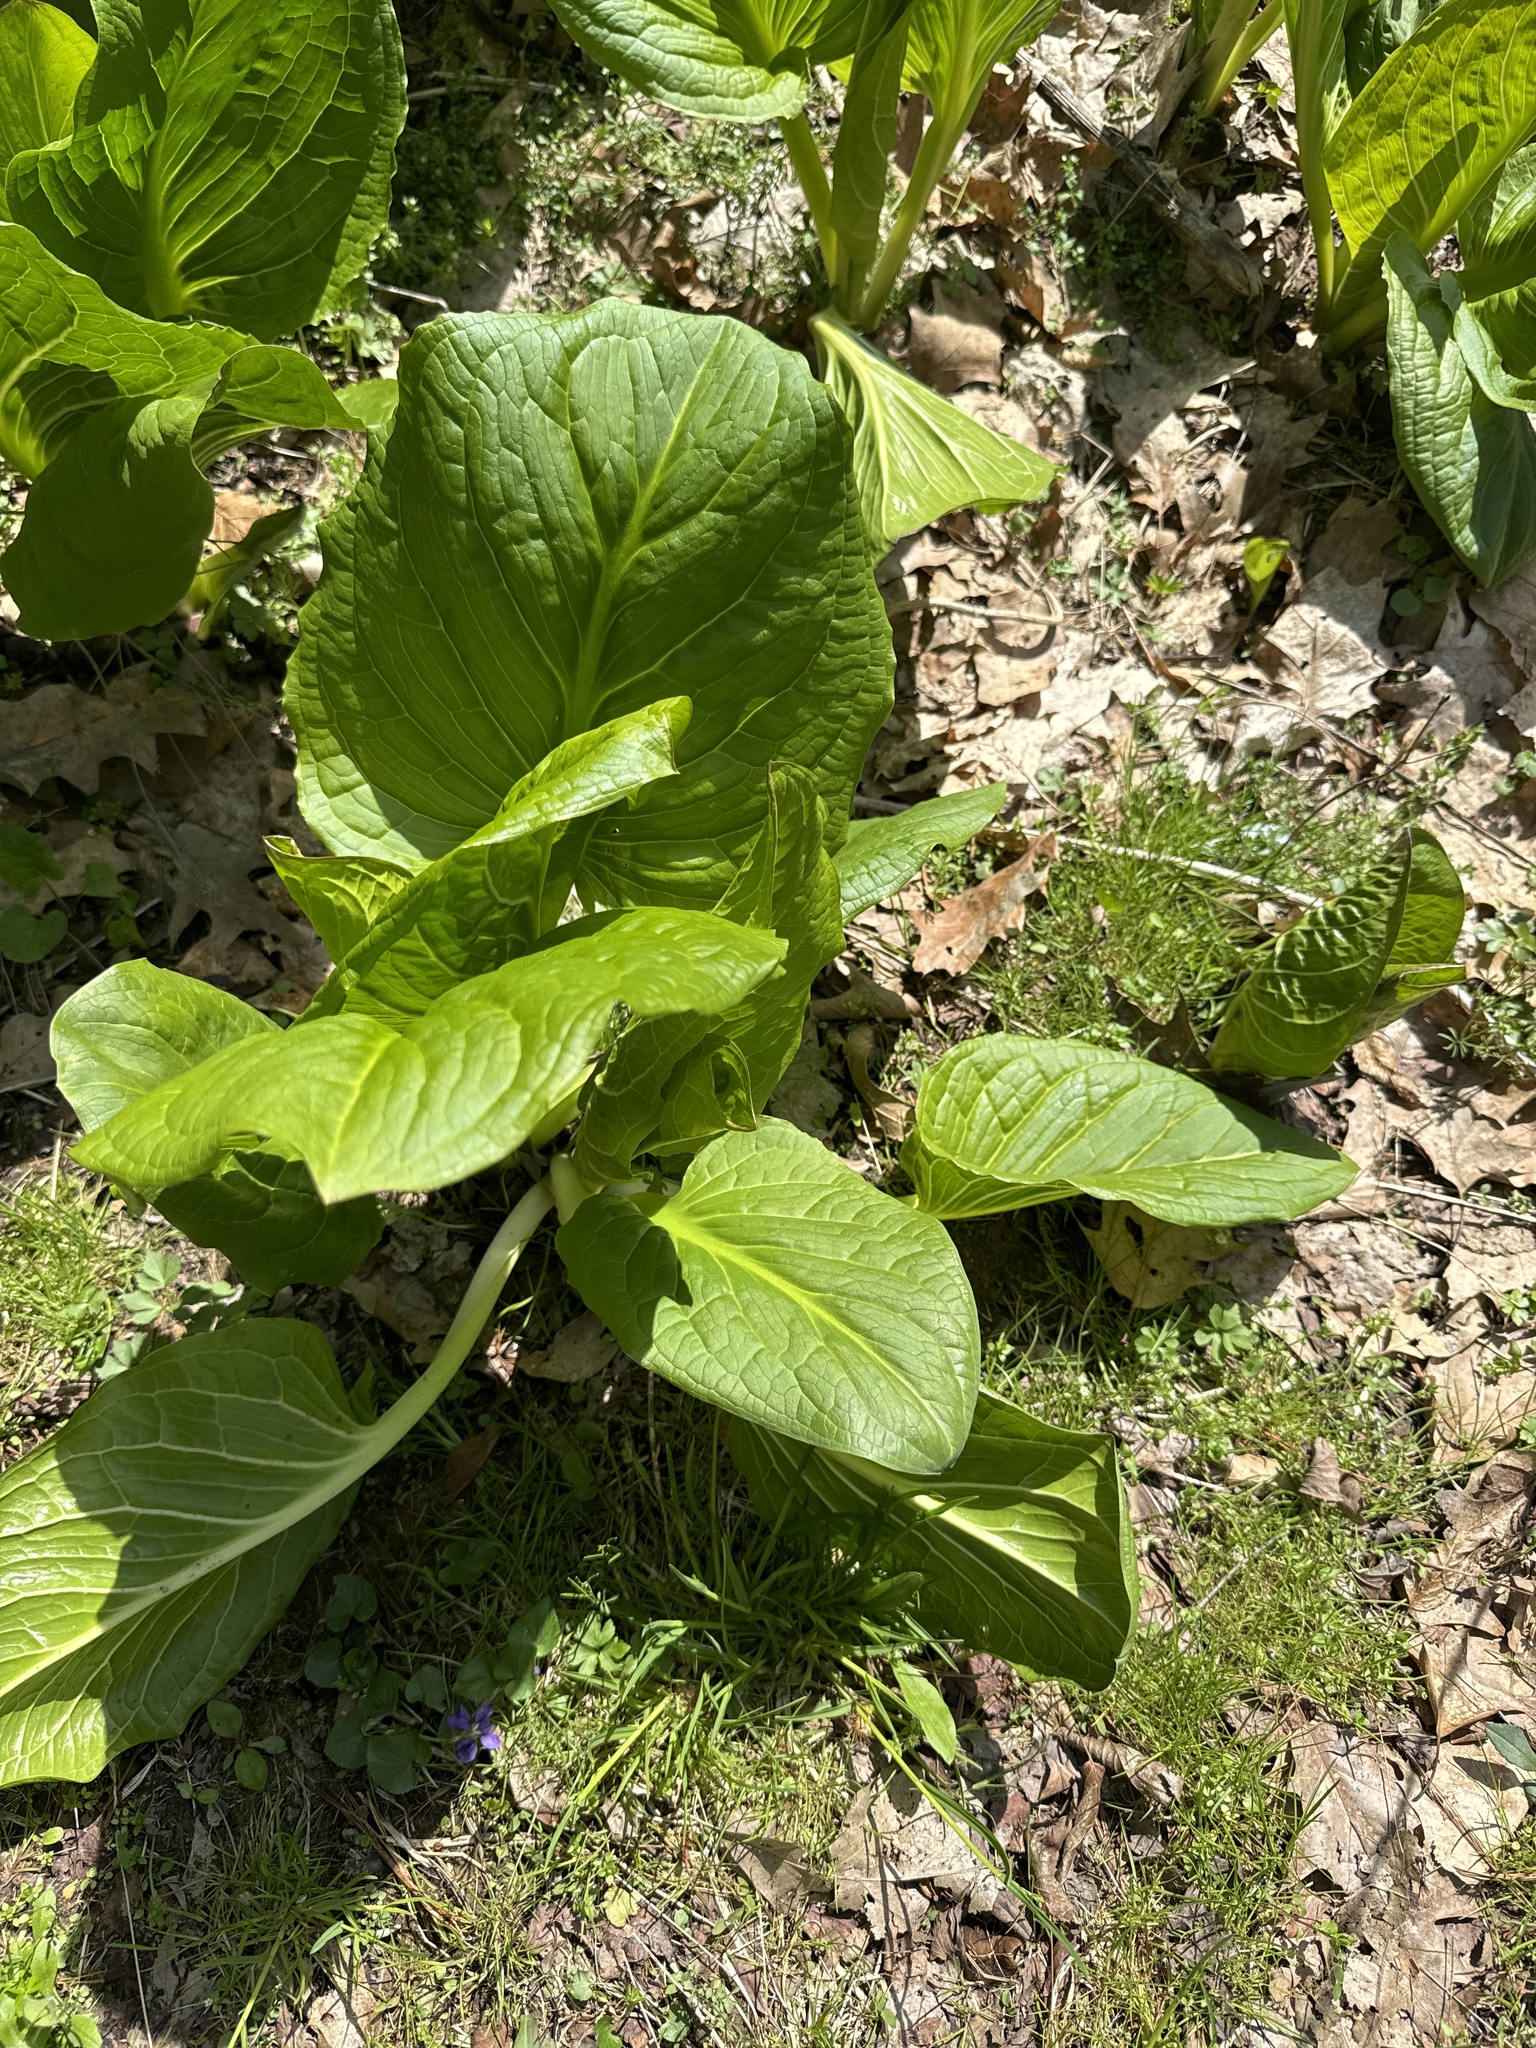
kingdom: Plantae
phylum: Tracheophyta
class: Liliopsida
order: Alismatales
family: Araceae
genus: Symplocarpus
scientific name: Symplocarpus foetidus
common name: Eastern skunk cabbage
